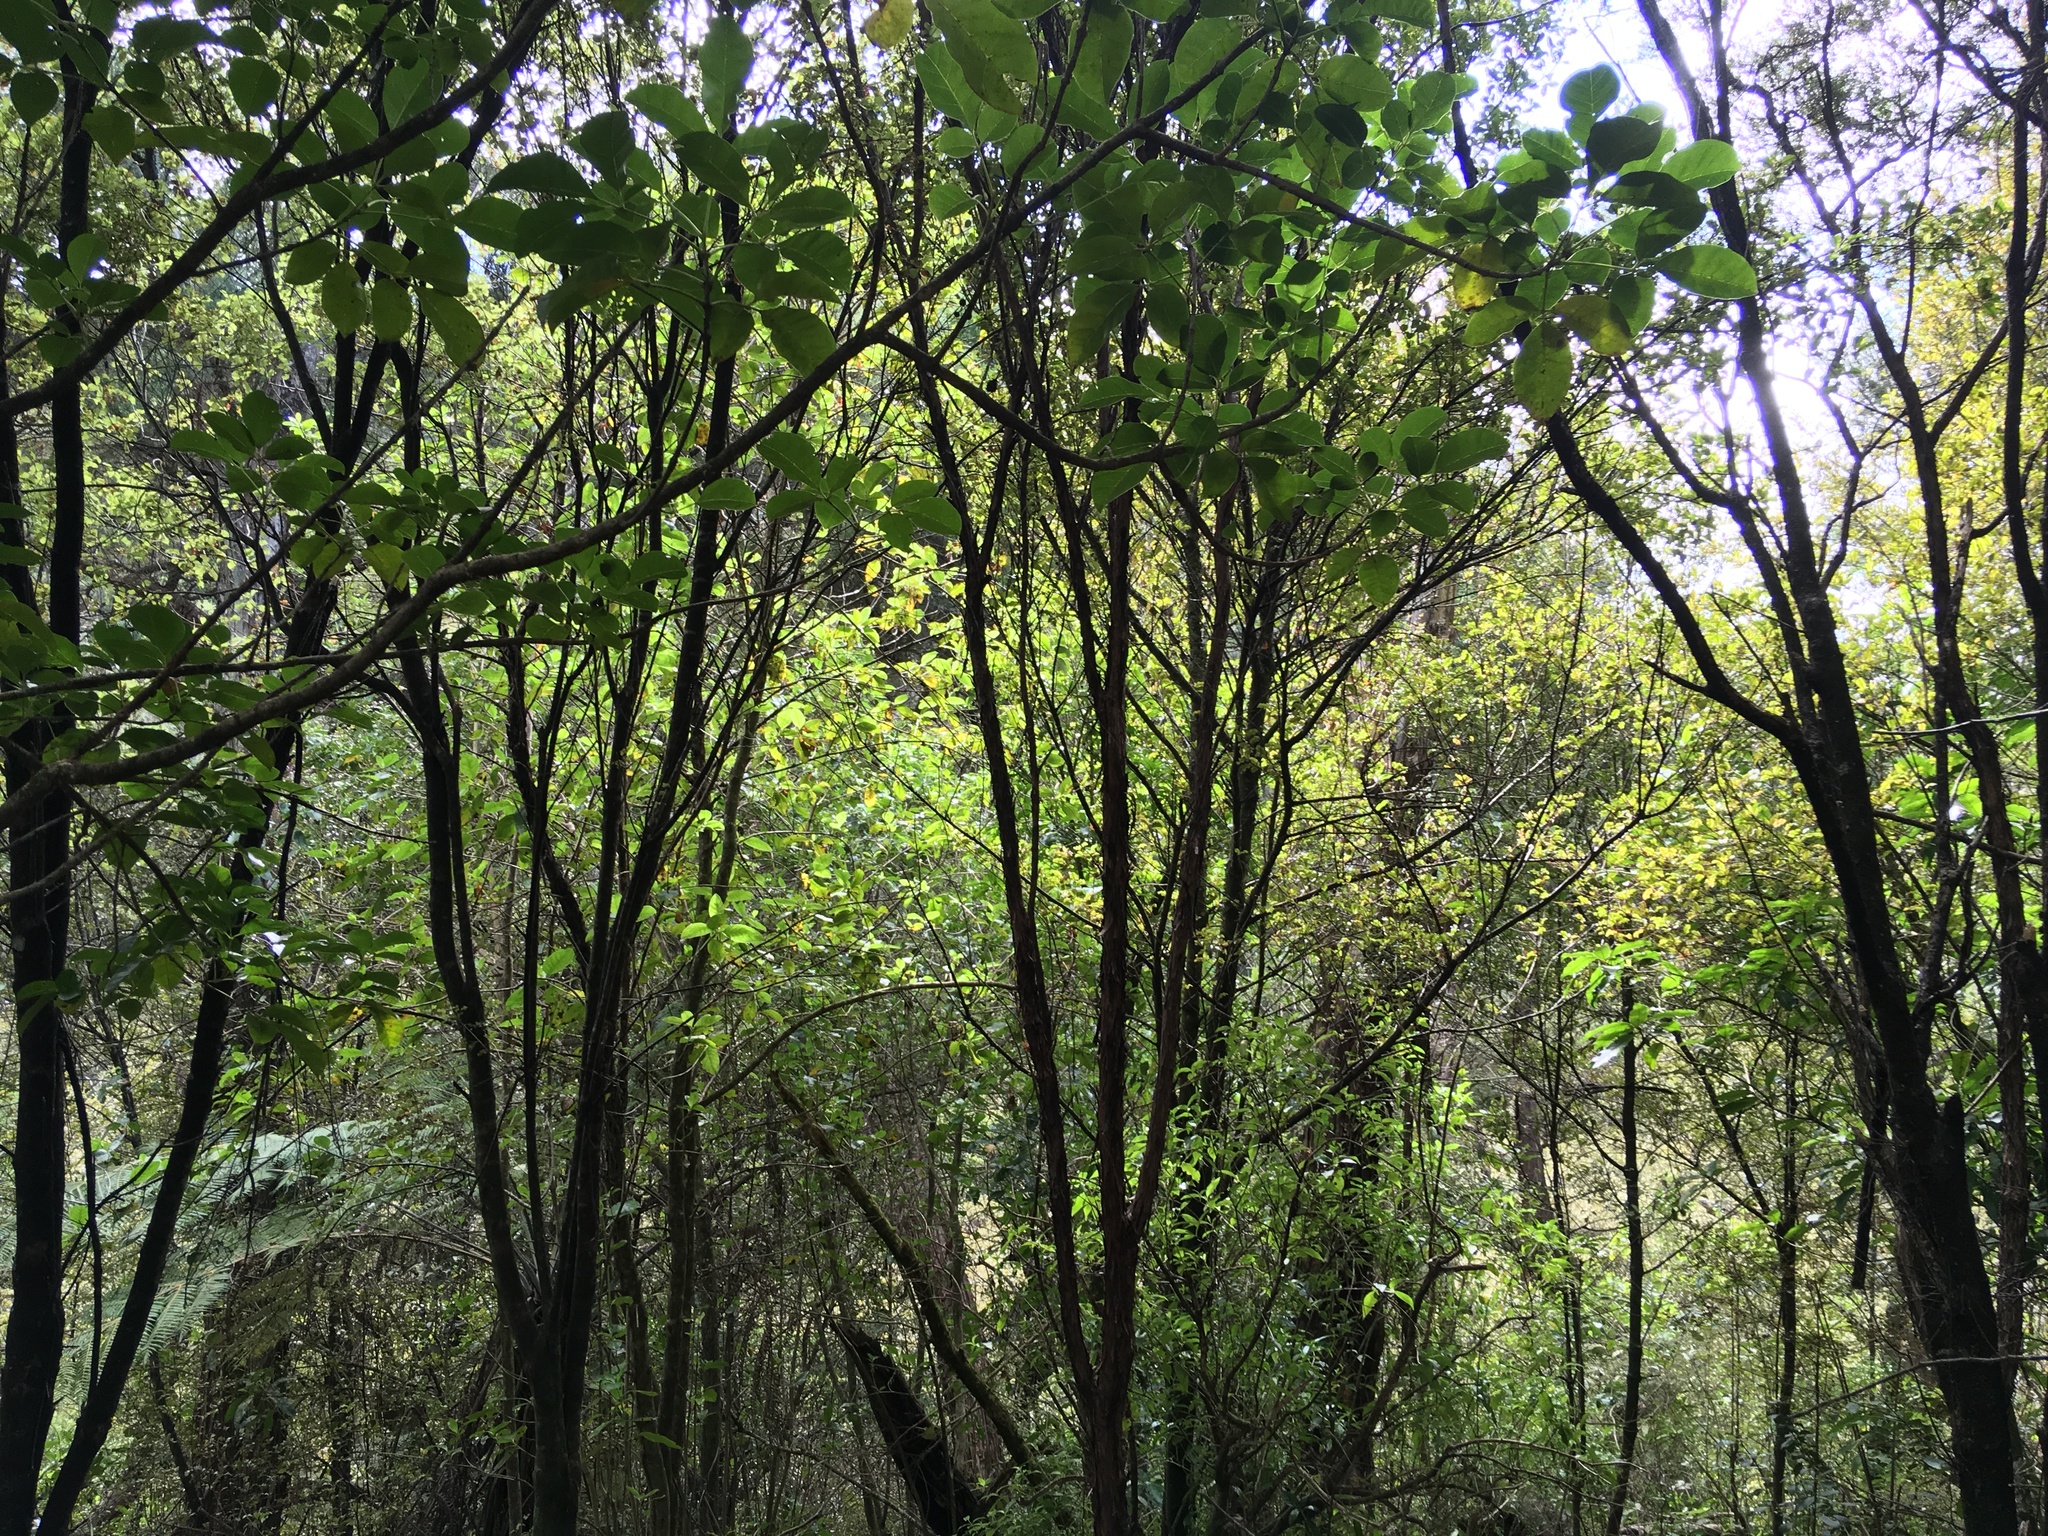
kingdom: Plantae
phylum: Tracheophyta
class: Magnoliopsida
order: Sapindales
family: Meliaceae
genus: Didymocheton
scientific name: Didymocheton spectabilis
